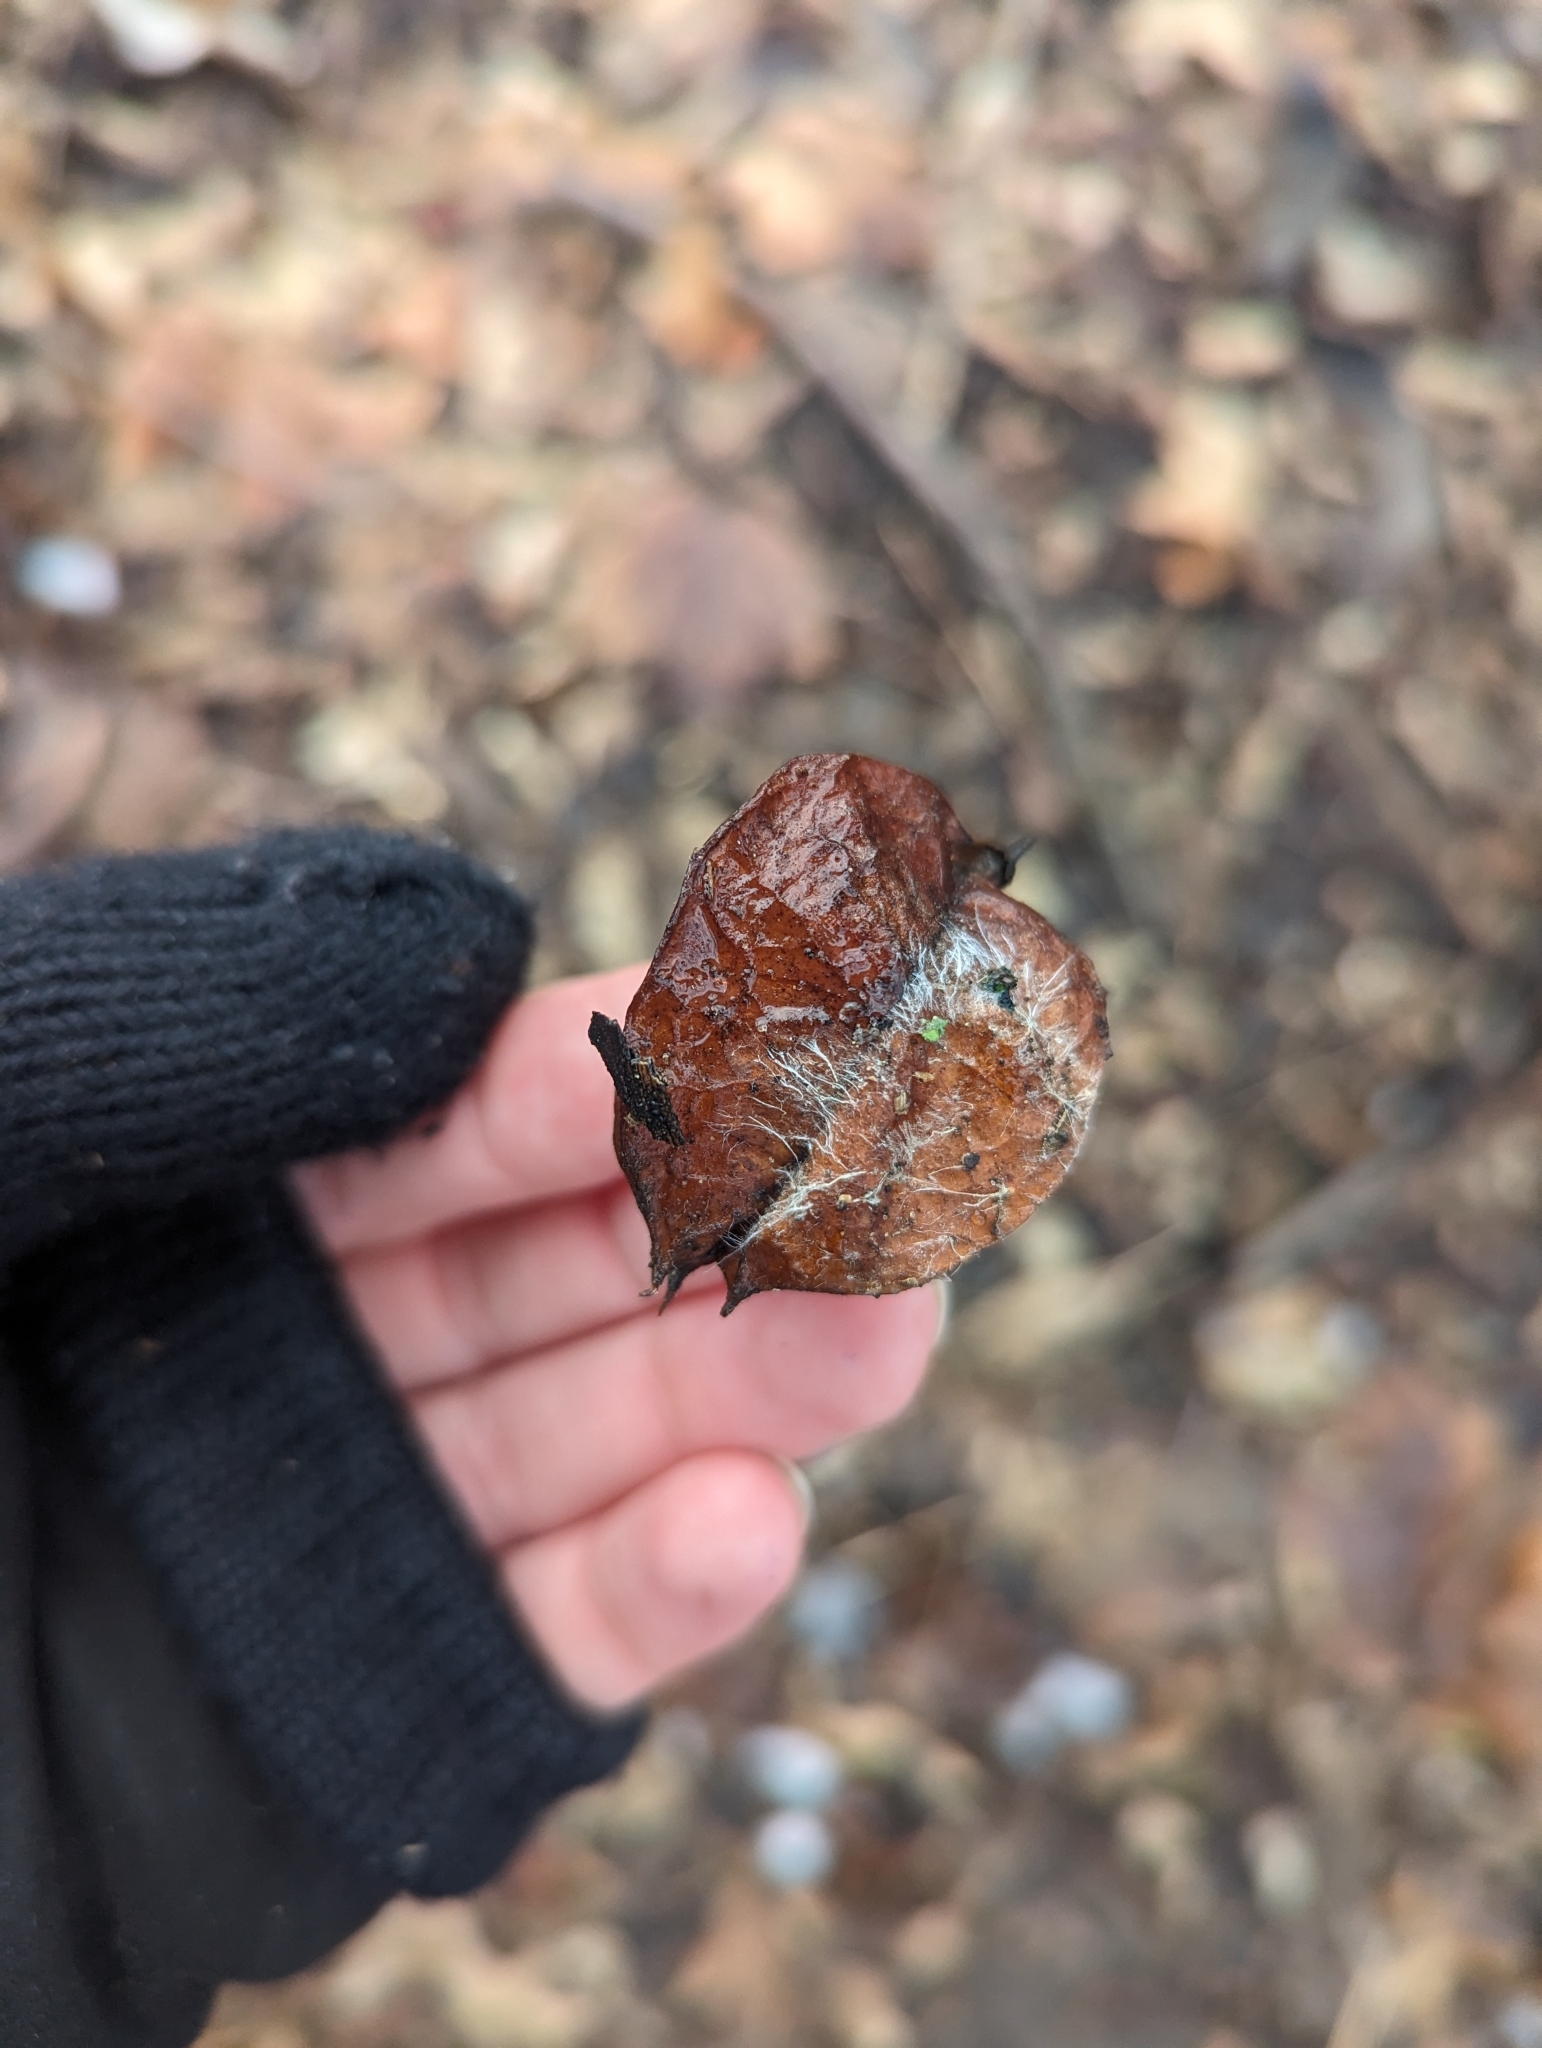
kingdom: Plantae
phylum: Tracheophyta
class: Magnoliopsida
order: Crossosomatales
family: Staphyleaceae
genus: Staphylea
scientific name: Staphylea trifolia
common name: American bladdernut
